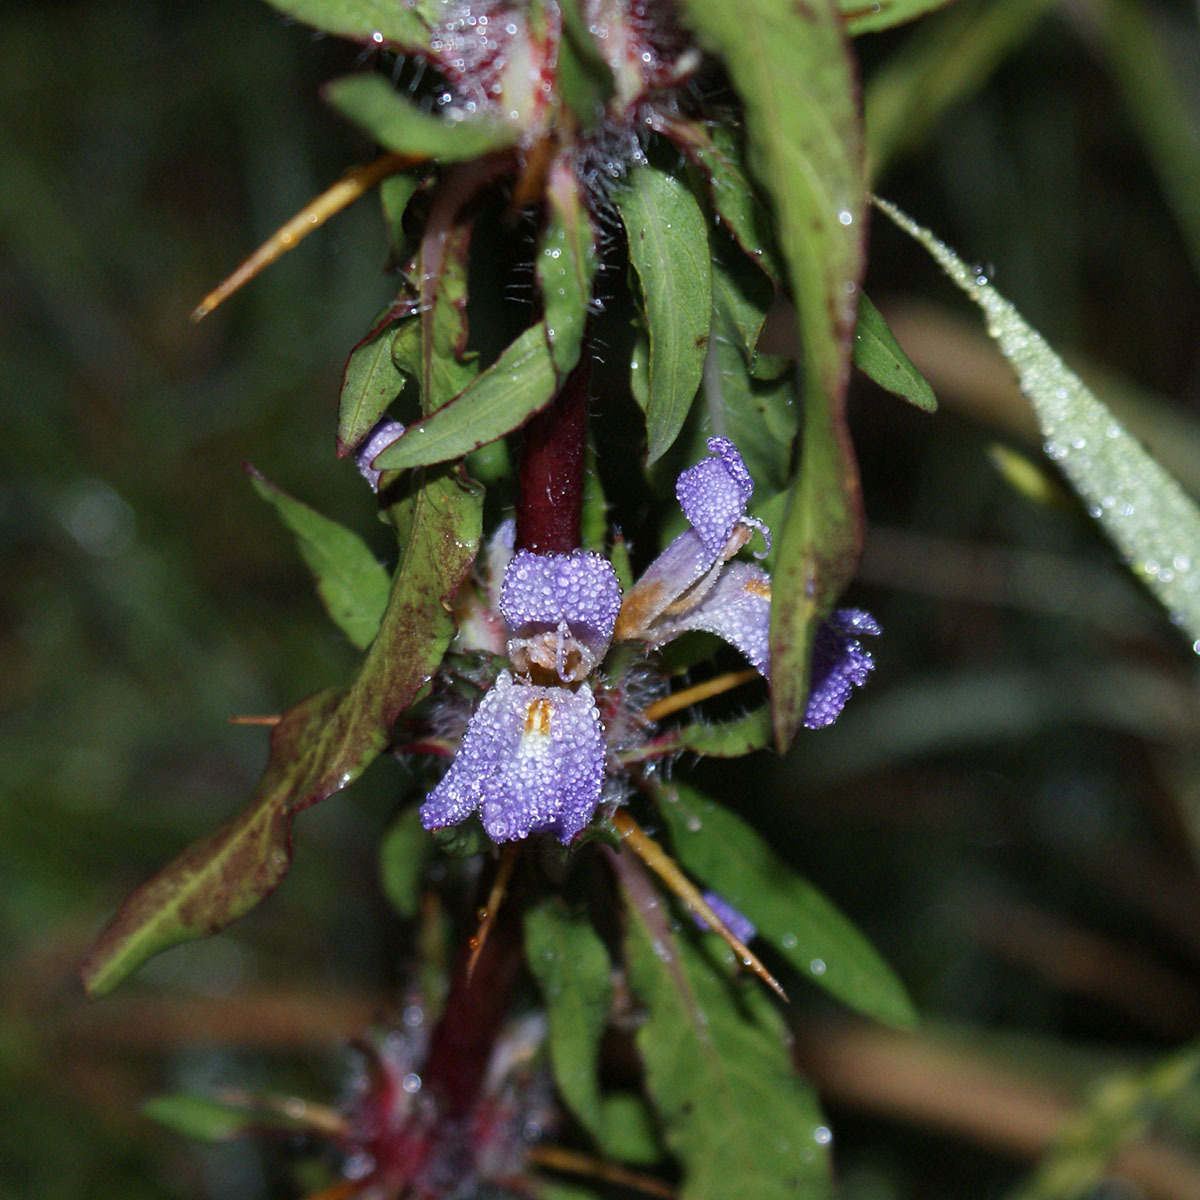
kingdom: Plantae
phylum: Tracheophyta
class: Magnoliopsida
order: Lamiales
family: Acanthaceae
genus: Hygrophila
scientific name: Hygrophila auriculata
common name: Hygrophila
